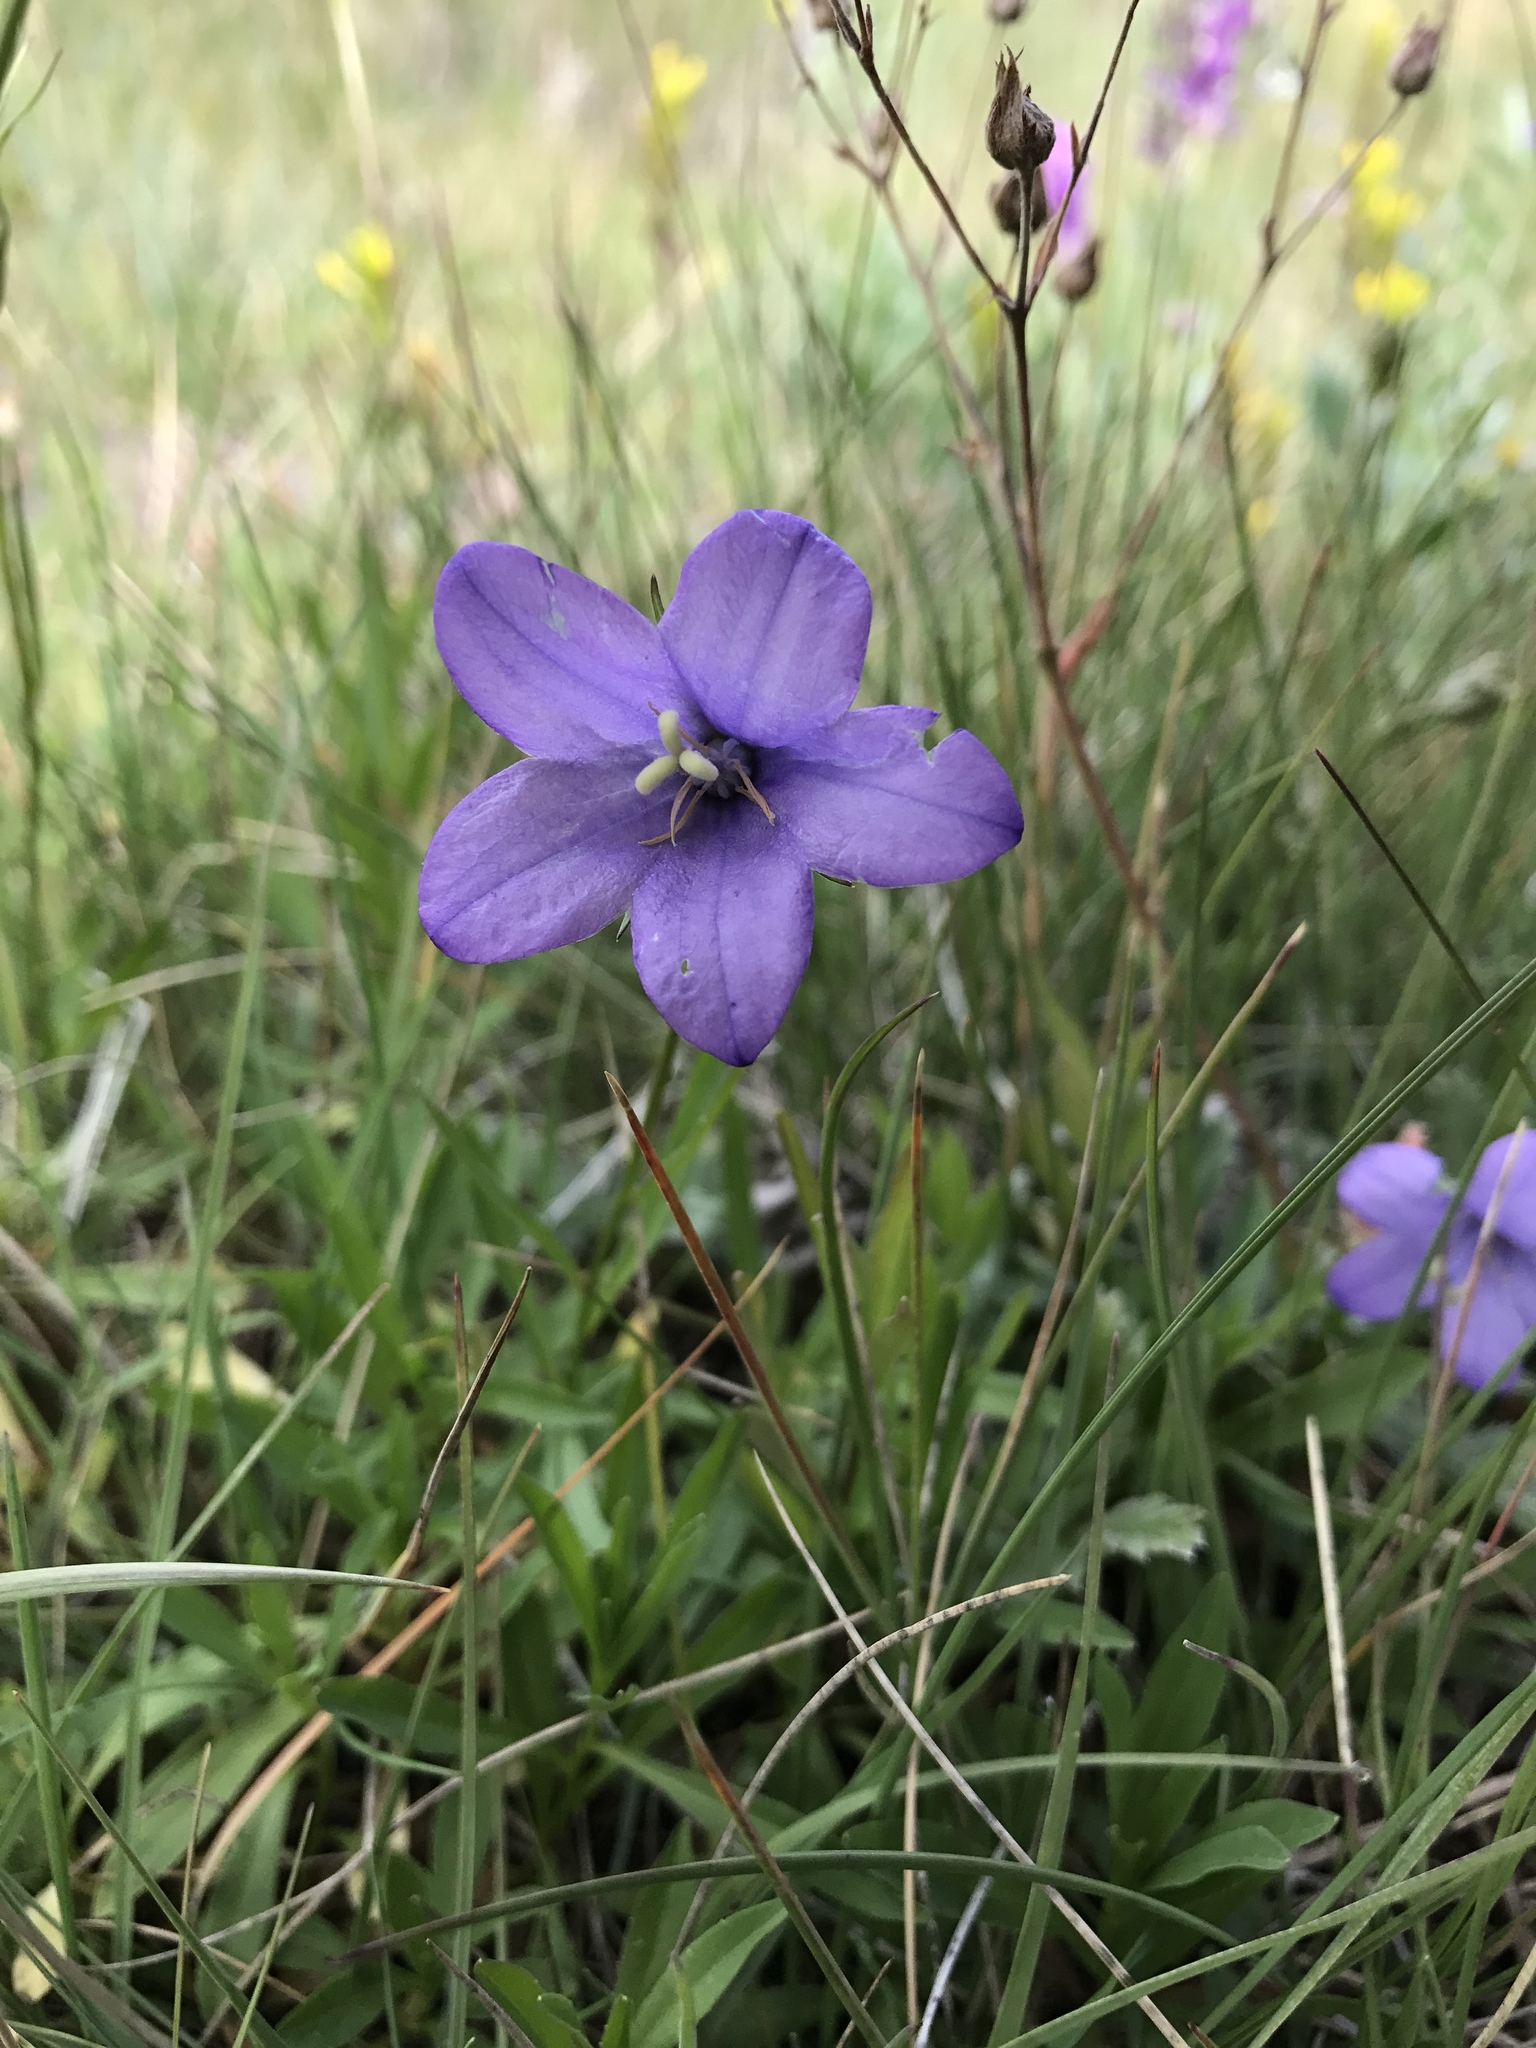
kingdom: Plantae
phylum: Tracheophyta
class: Magnoliopsida
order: Asterales
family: Campanulaceae
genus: Campanula
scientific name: Campanula parryi
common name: Rocky mountain bellflower
